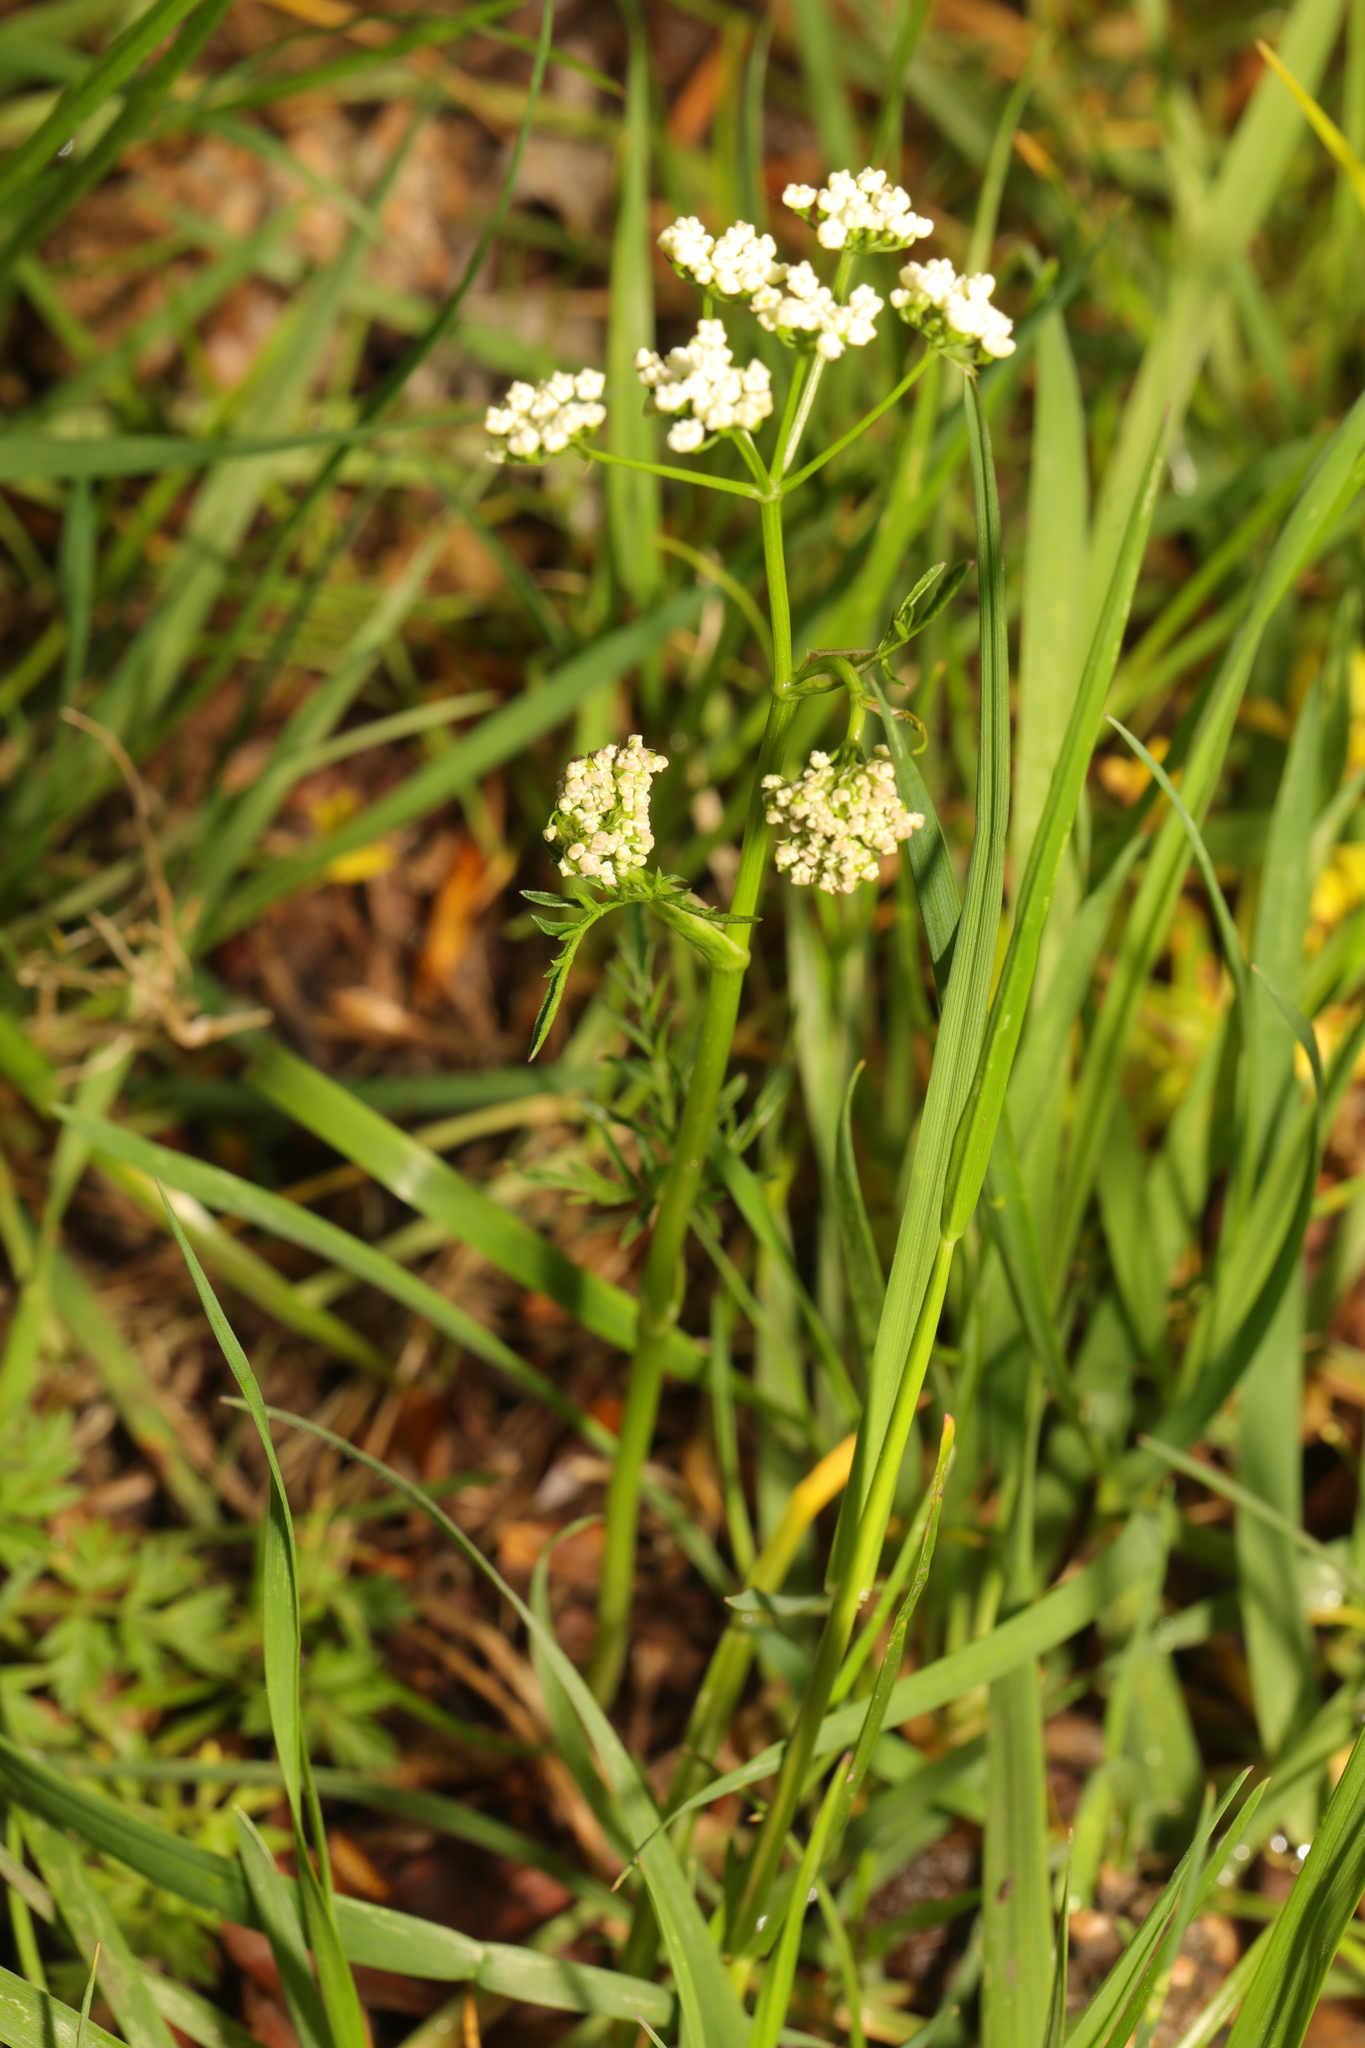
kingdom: Plantae
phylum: Tracheophyta
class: Magnoliopsida
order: Apiales
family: Apiaceae
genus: Conopodium
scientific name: Conopodium majus
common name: Pignut
